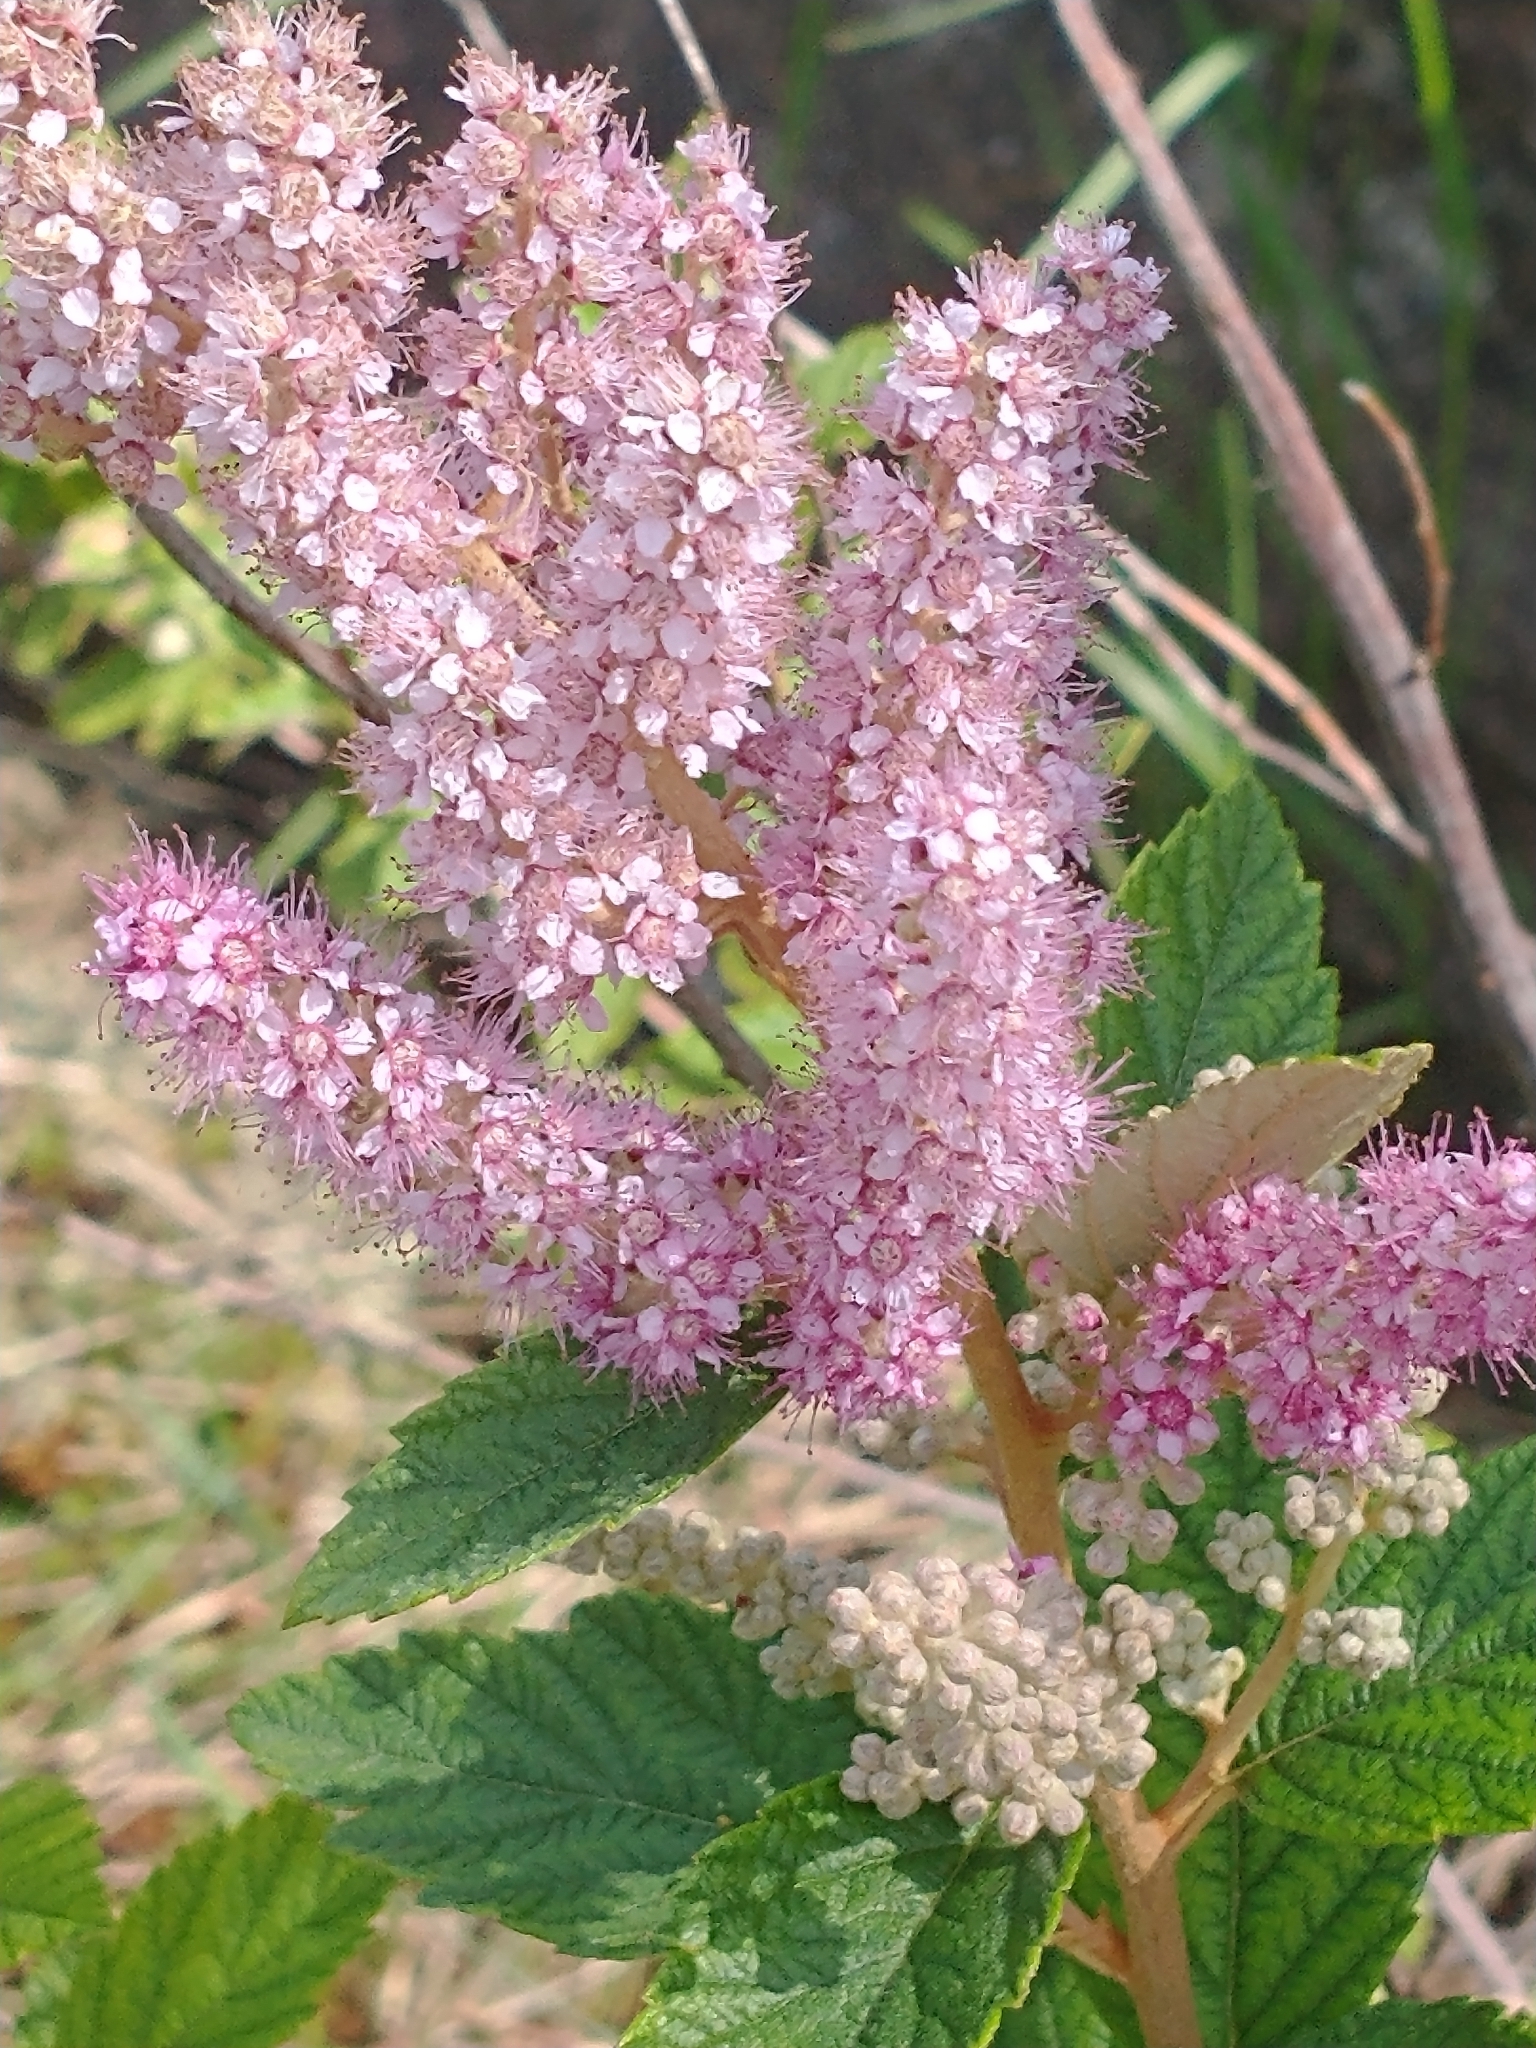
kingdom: Plantae
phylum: Tracheophyta
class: Magnoliopsida
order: Rosales
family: Rosaceae
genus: Spiraea
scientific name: Spiraea tomentosa
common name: Hardhack
